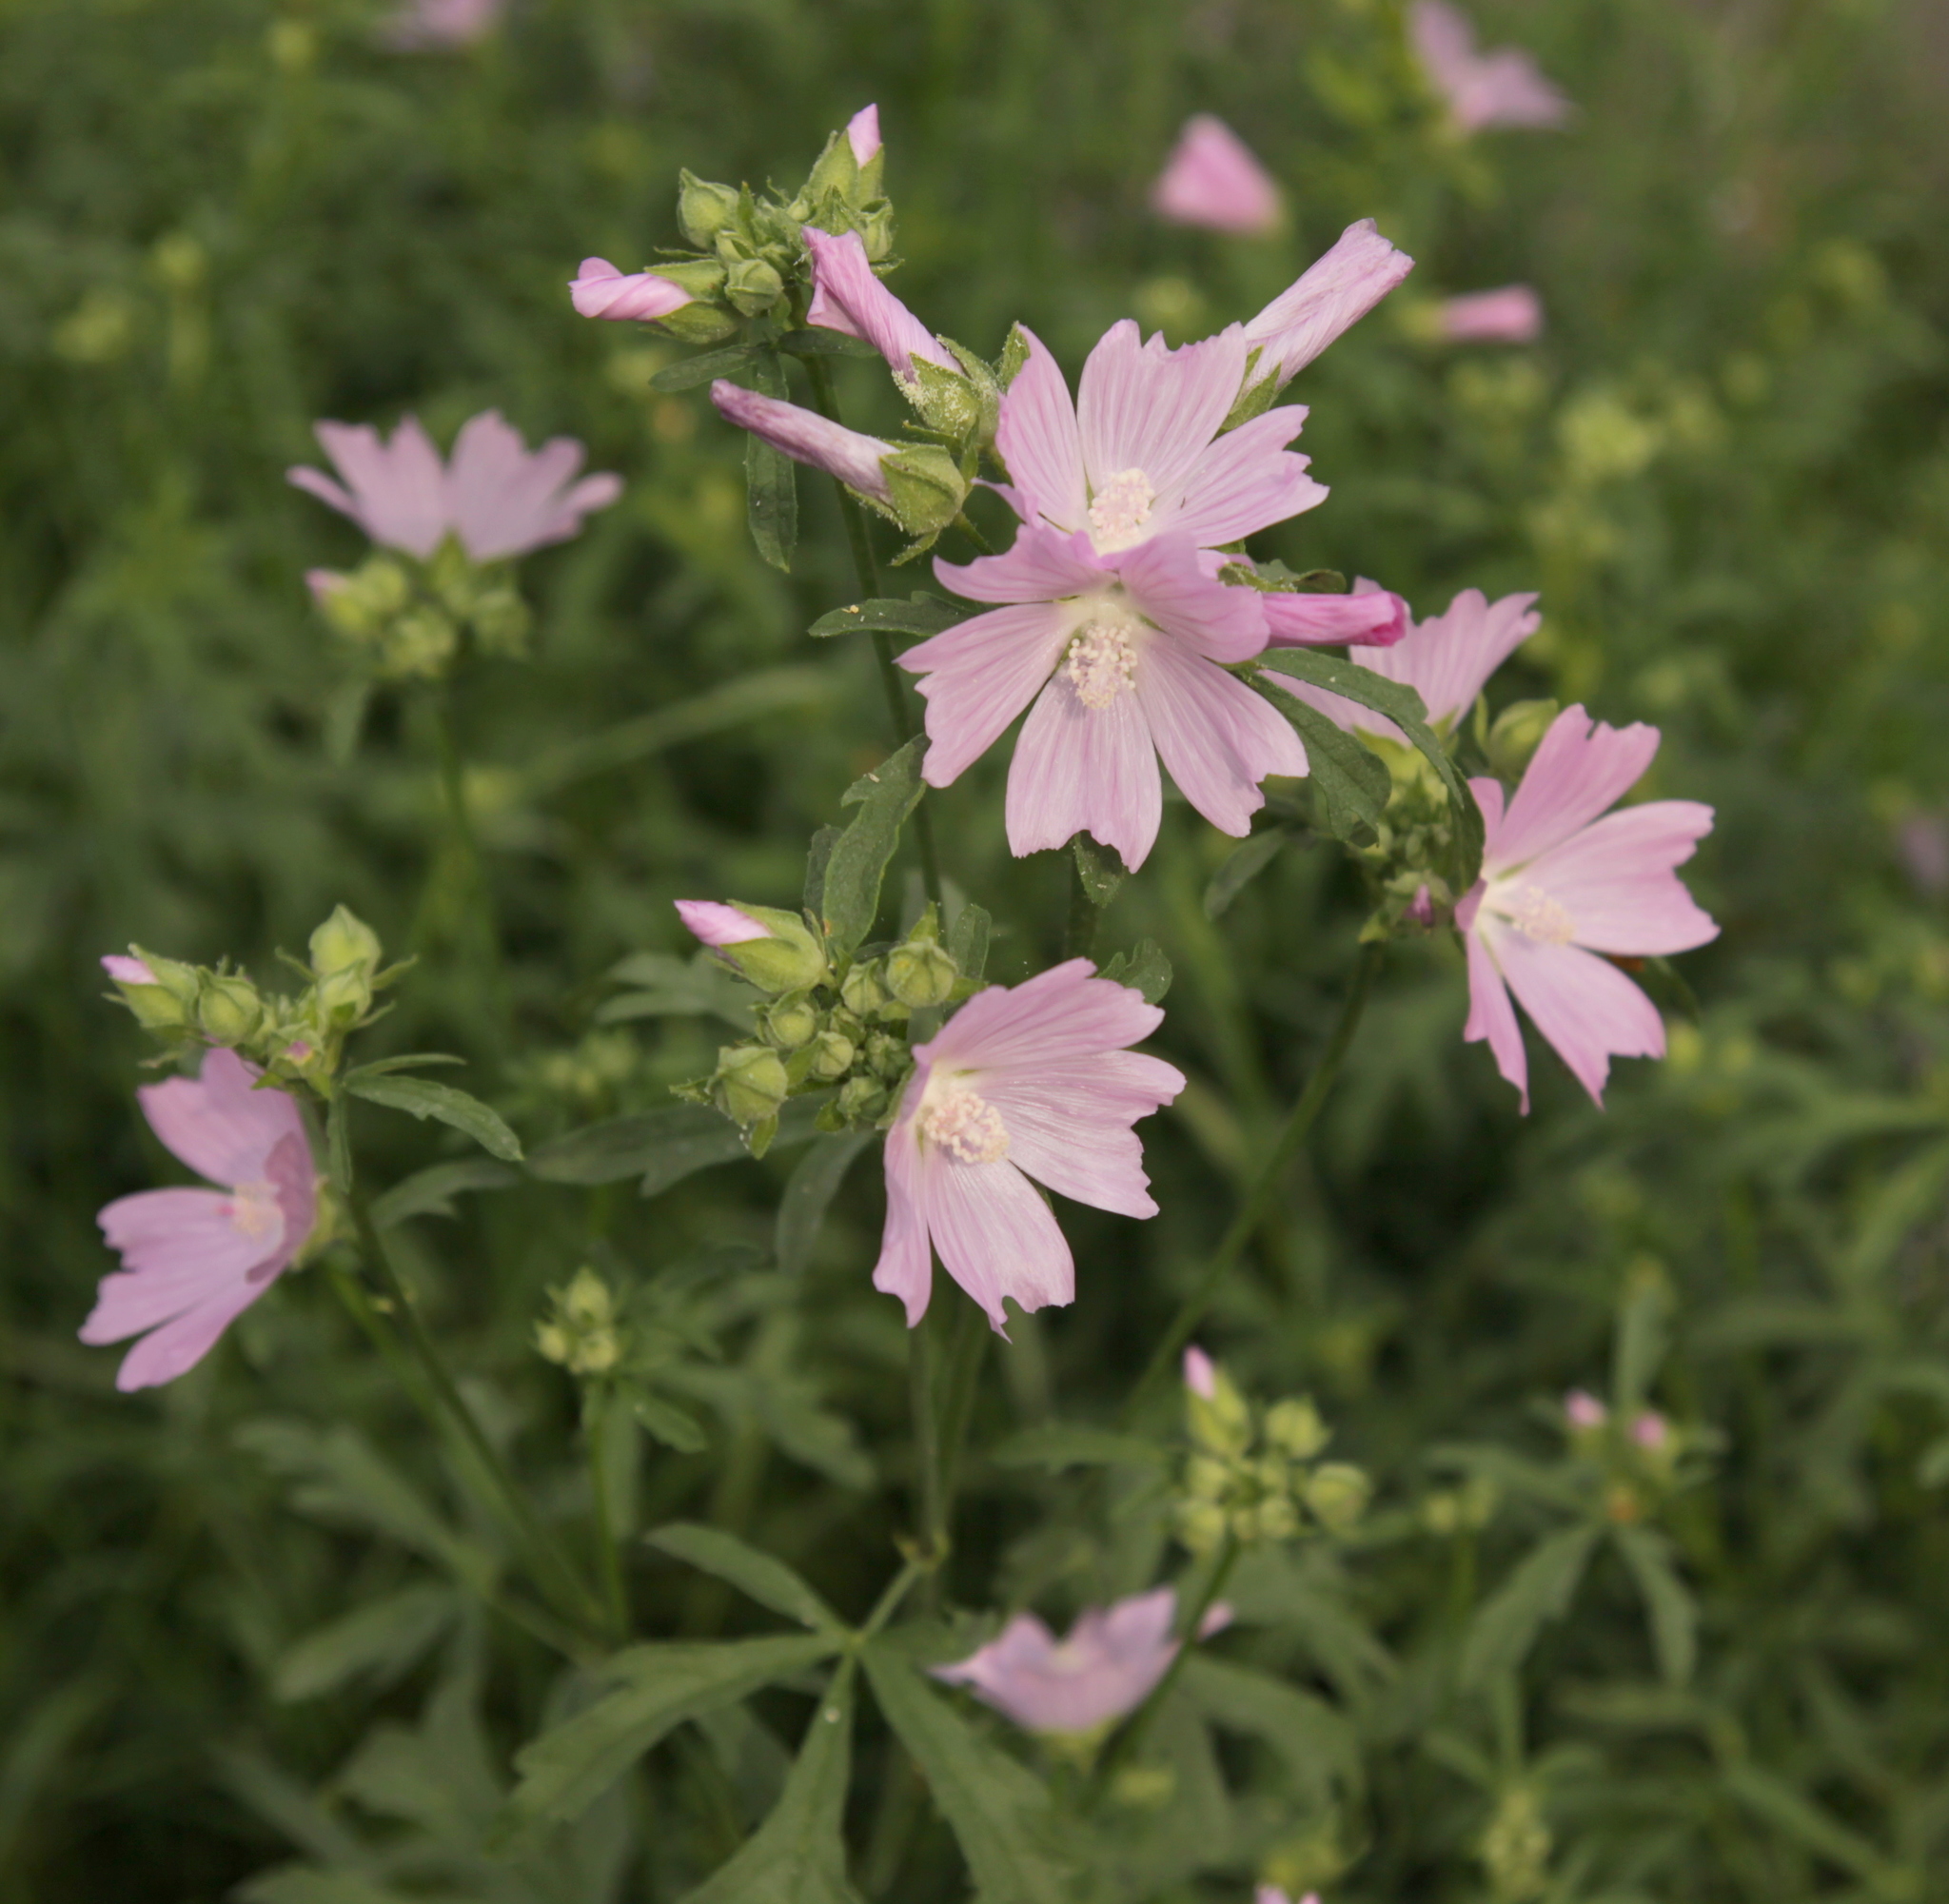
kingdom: Plantae
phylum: Tracheophyta
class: Magnoliopsida
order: Malvales
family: Malvaceae
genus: Malva
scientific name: Malva alcea
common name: Greater musk-mallow
